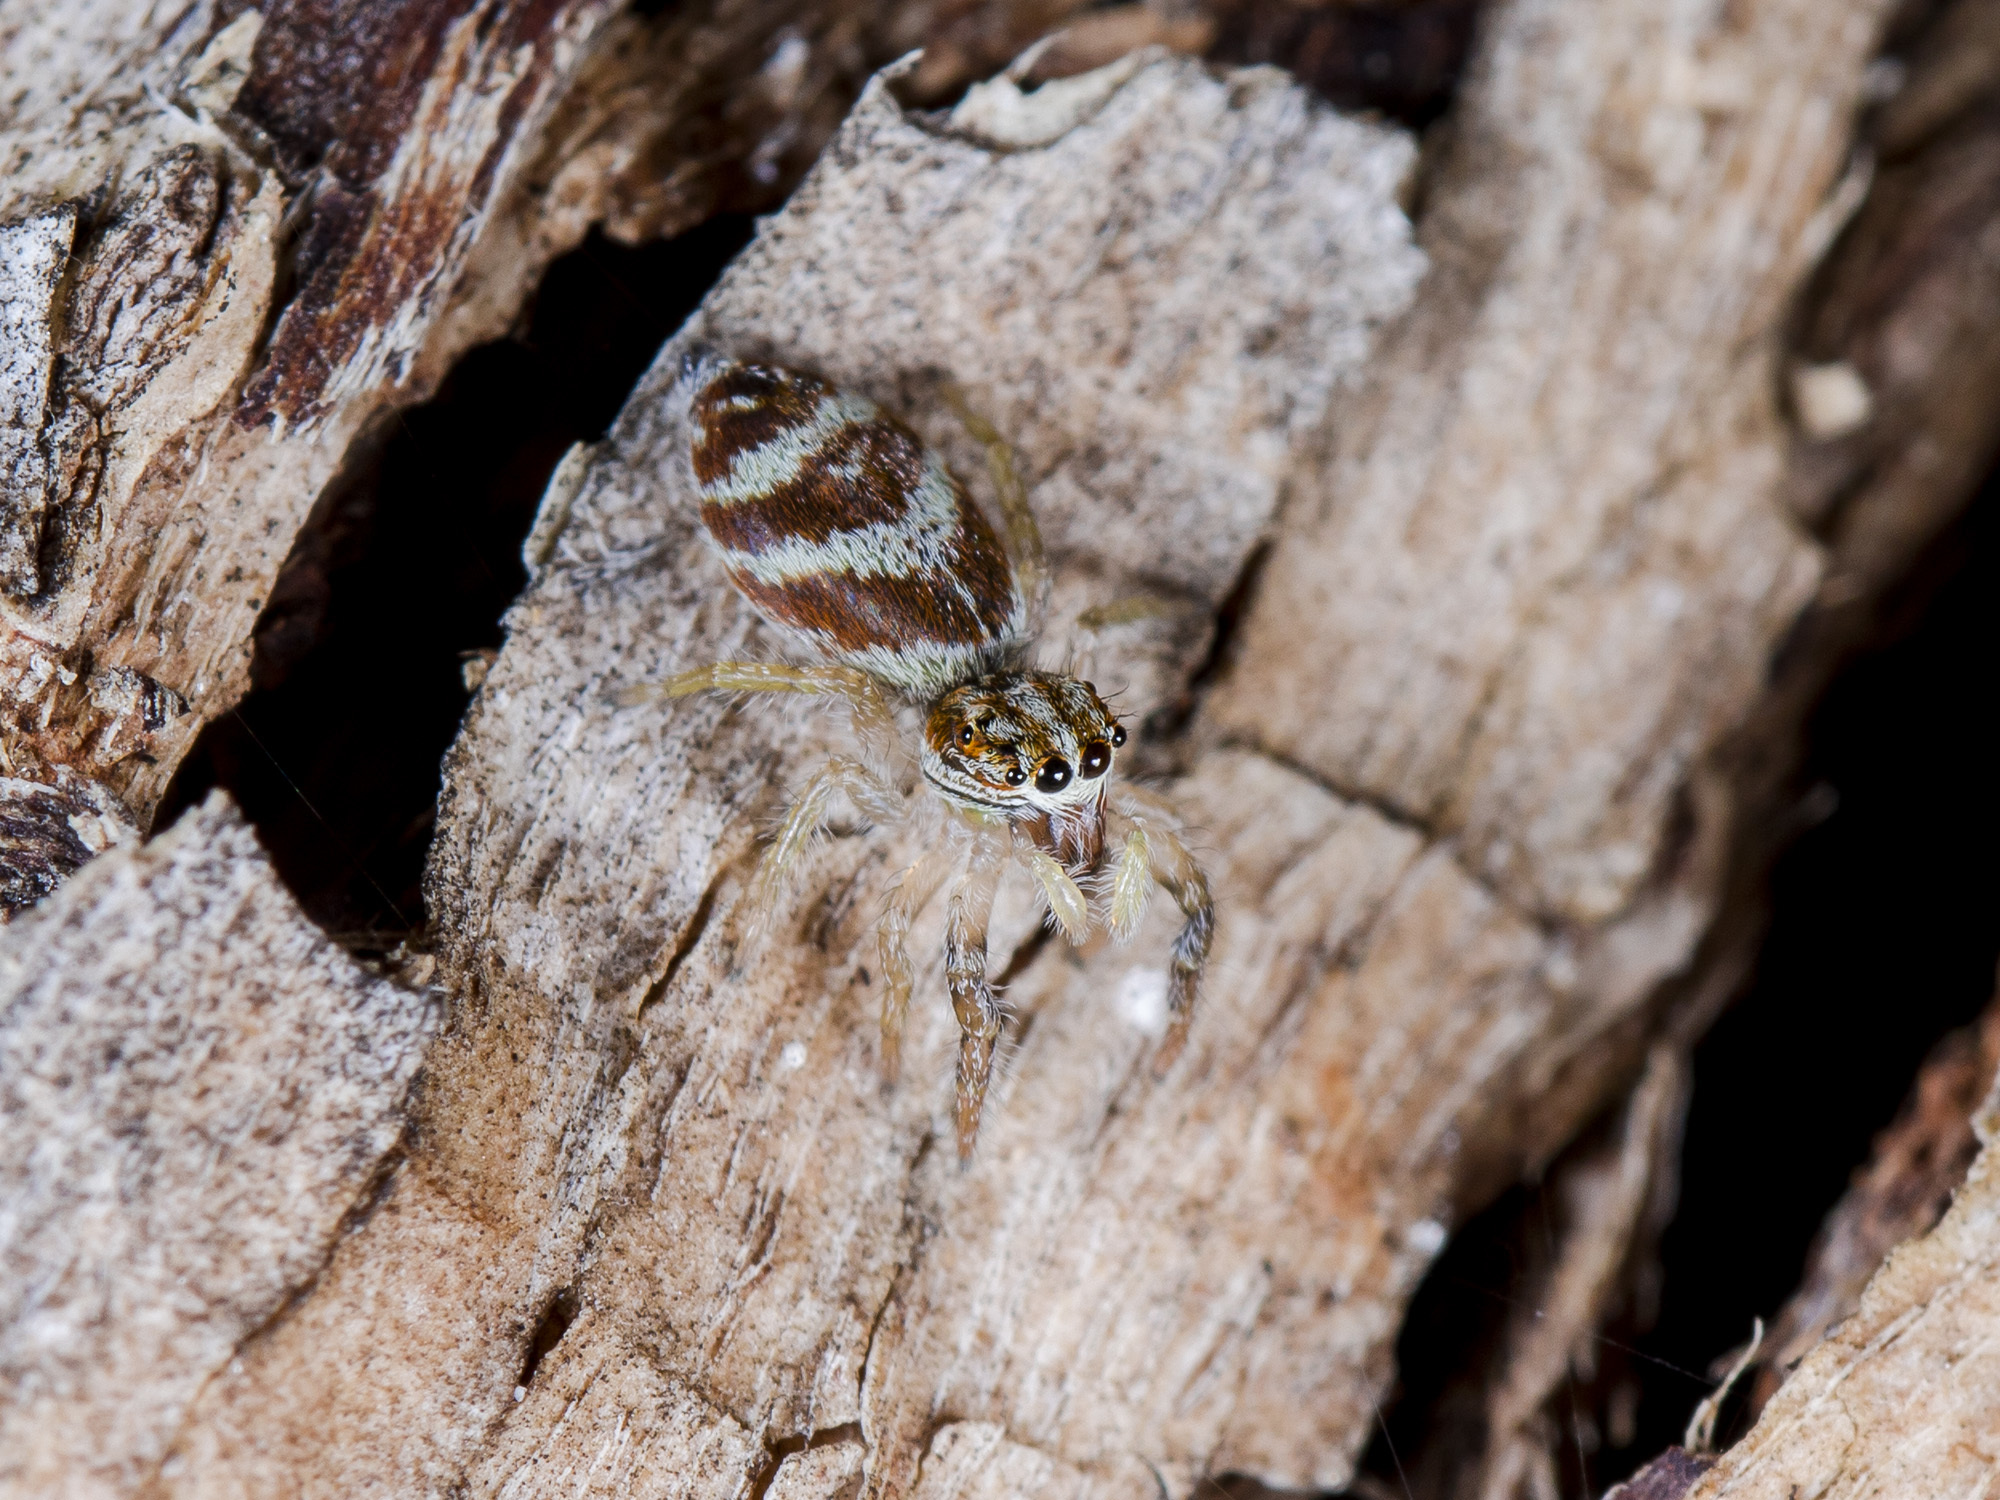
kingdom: Animalia
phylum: Arthropoda
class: Arachnida
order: Araneae
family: Salticidae
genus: Rudakius
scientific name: Rudakius cinctus
